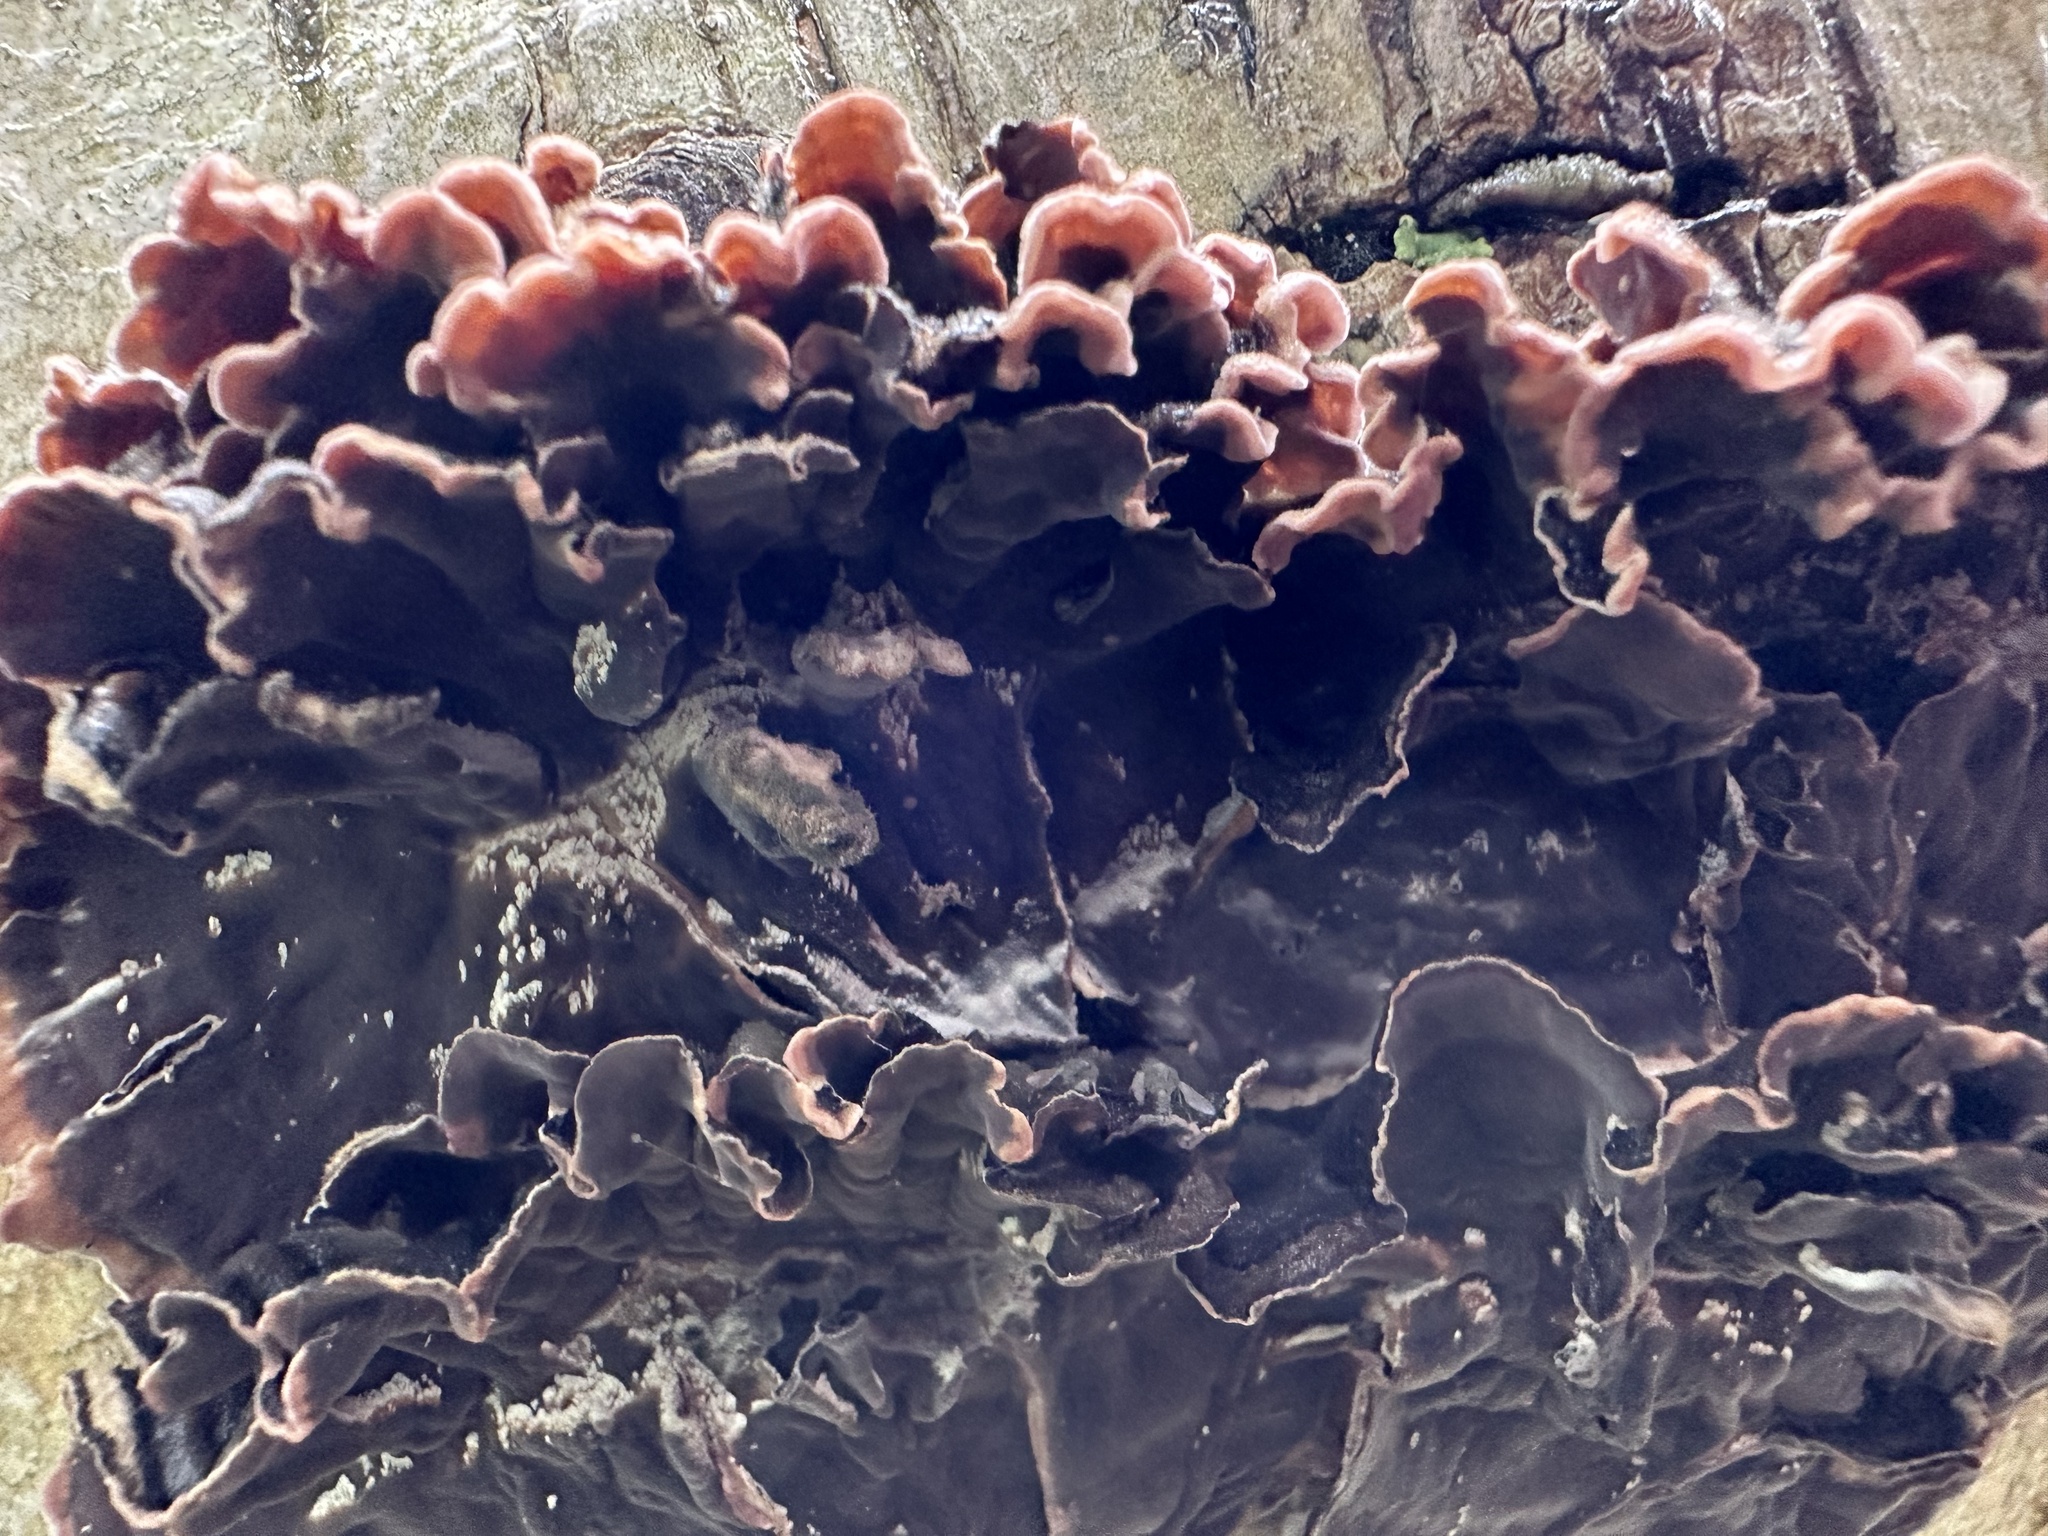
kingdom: Fungi
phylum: Basidiomycota
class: Agaricomycetes
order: Agaricales
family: Cyphellaceae
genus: Chondrostereum
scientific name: Chondrostereum purpureum
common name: Silver leaf disease
